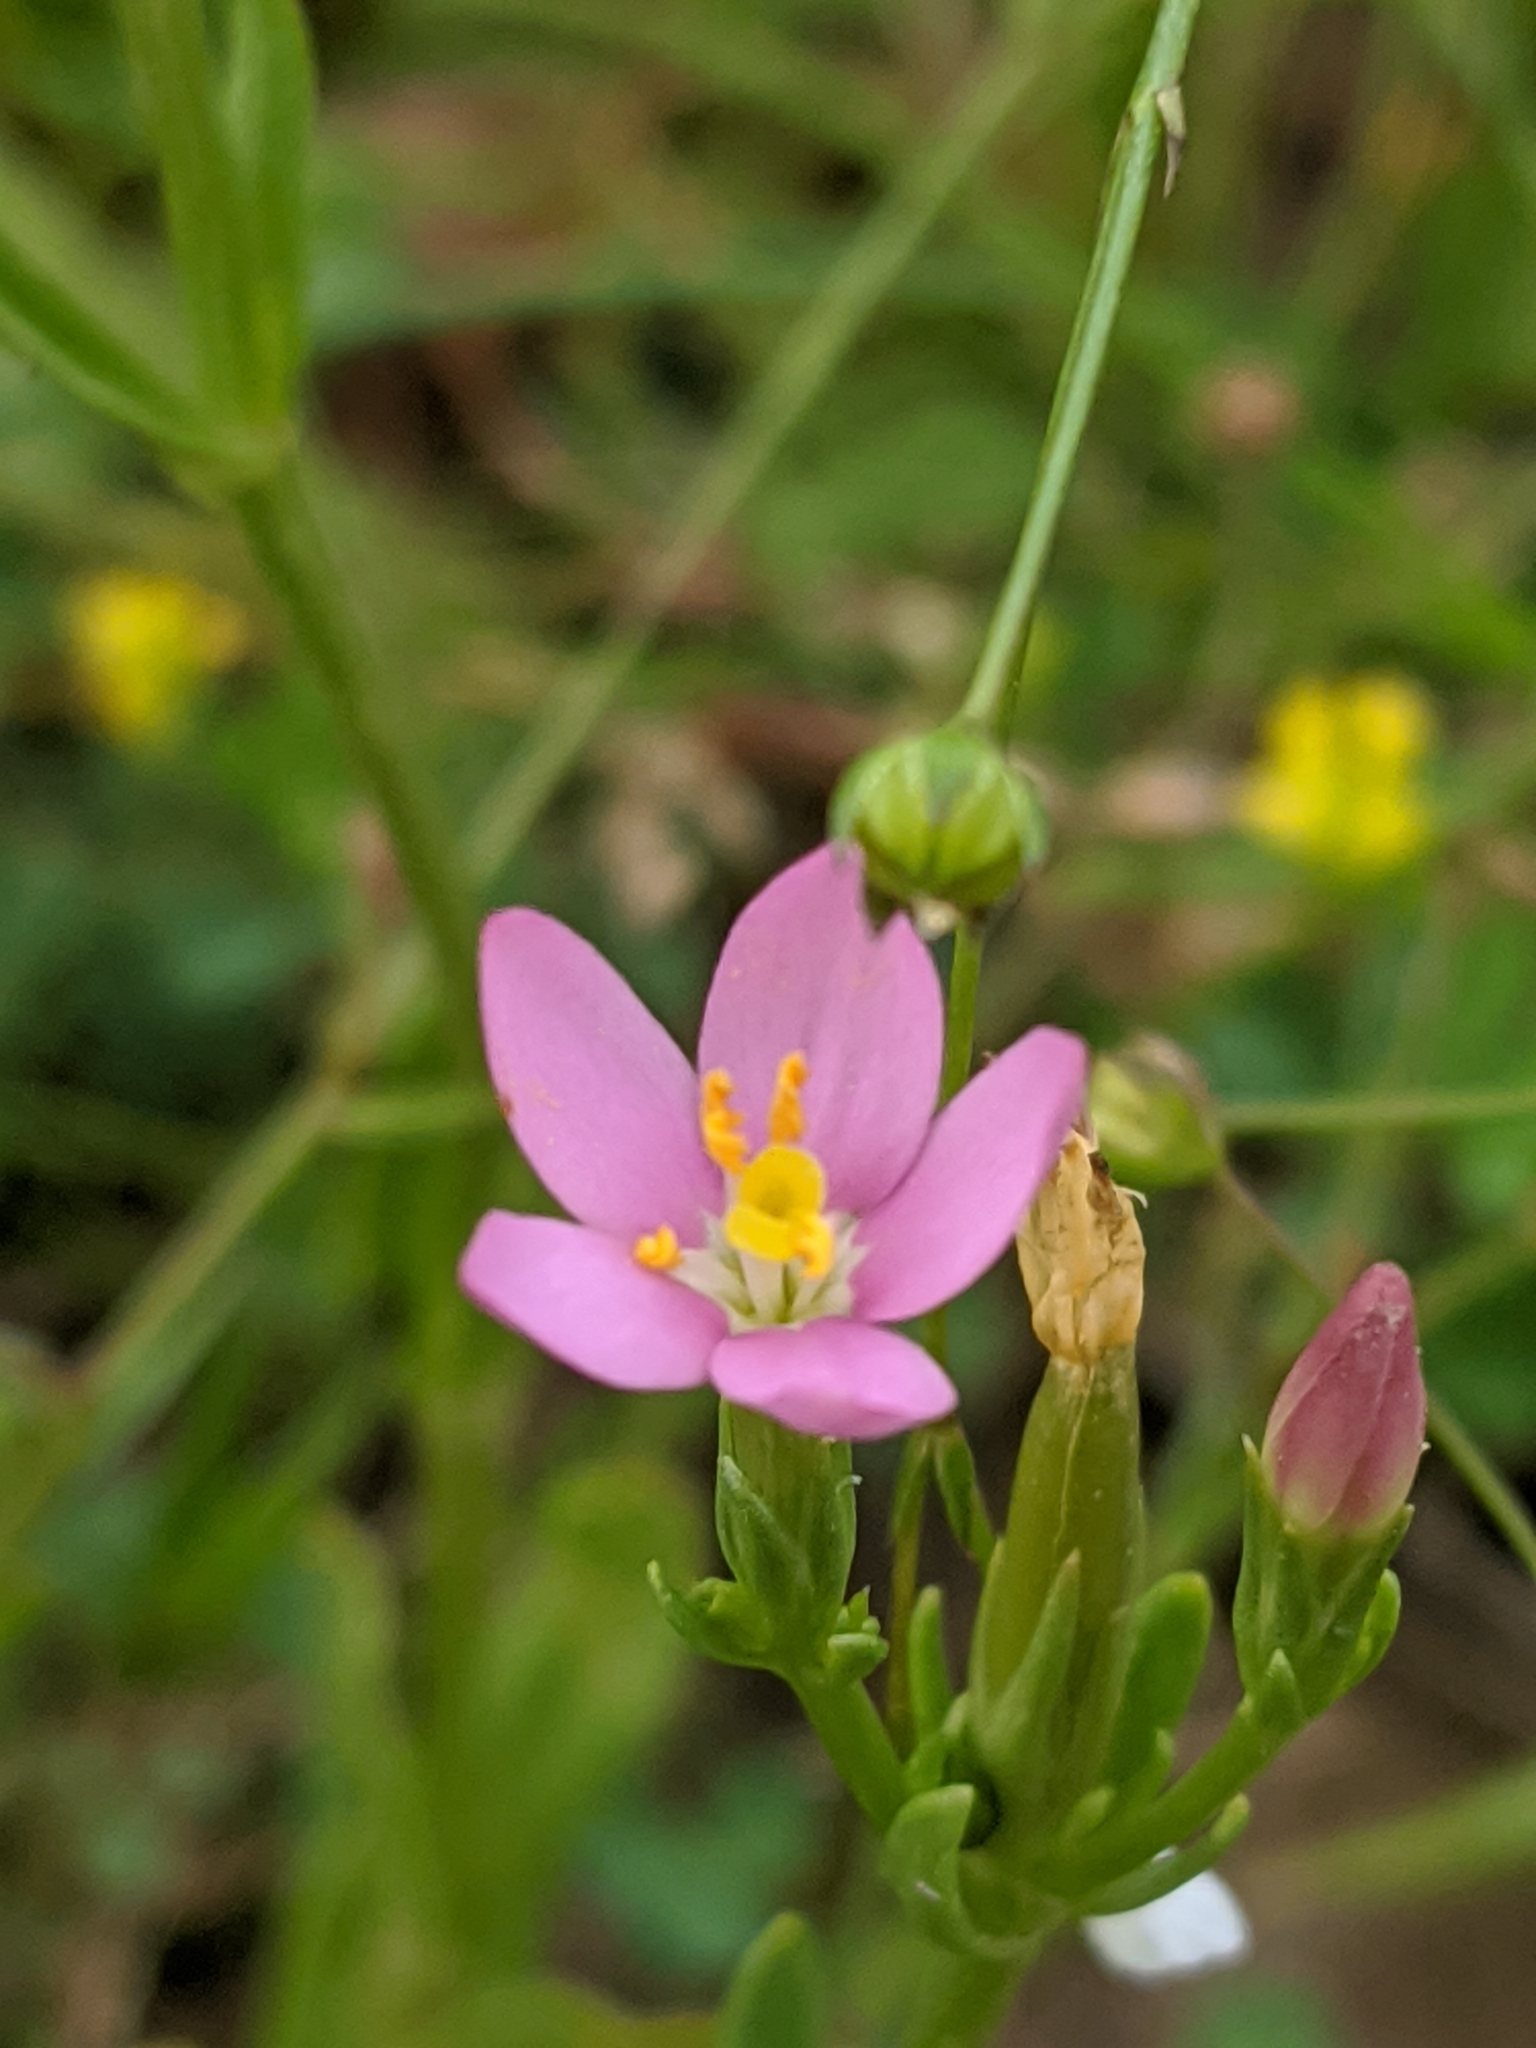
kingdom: Plantae
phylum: Tracheophyta
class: Magnoliopsida
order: Gentianales
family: Gentianaceae
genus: Centaurium
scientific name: Centaurium erythraea
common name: Common centaury
